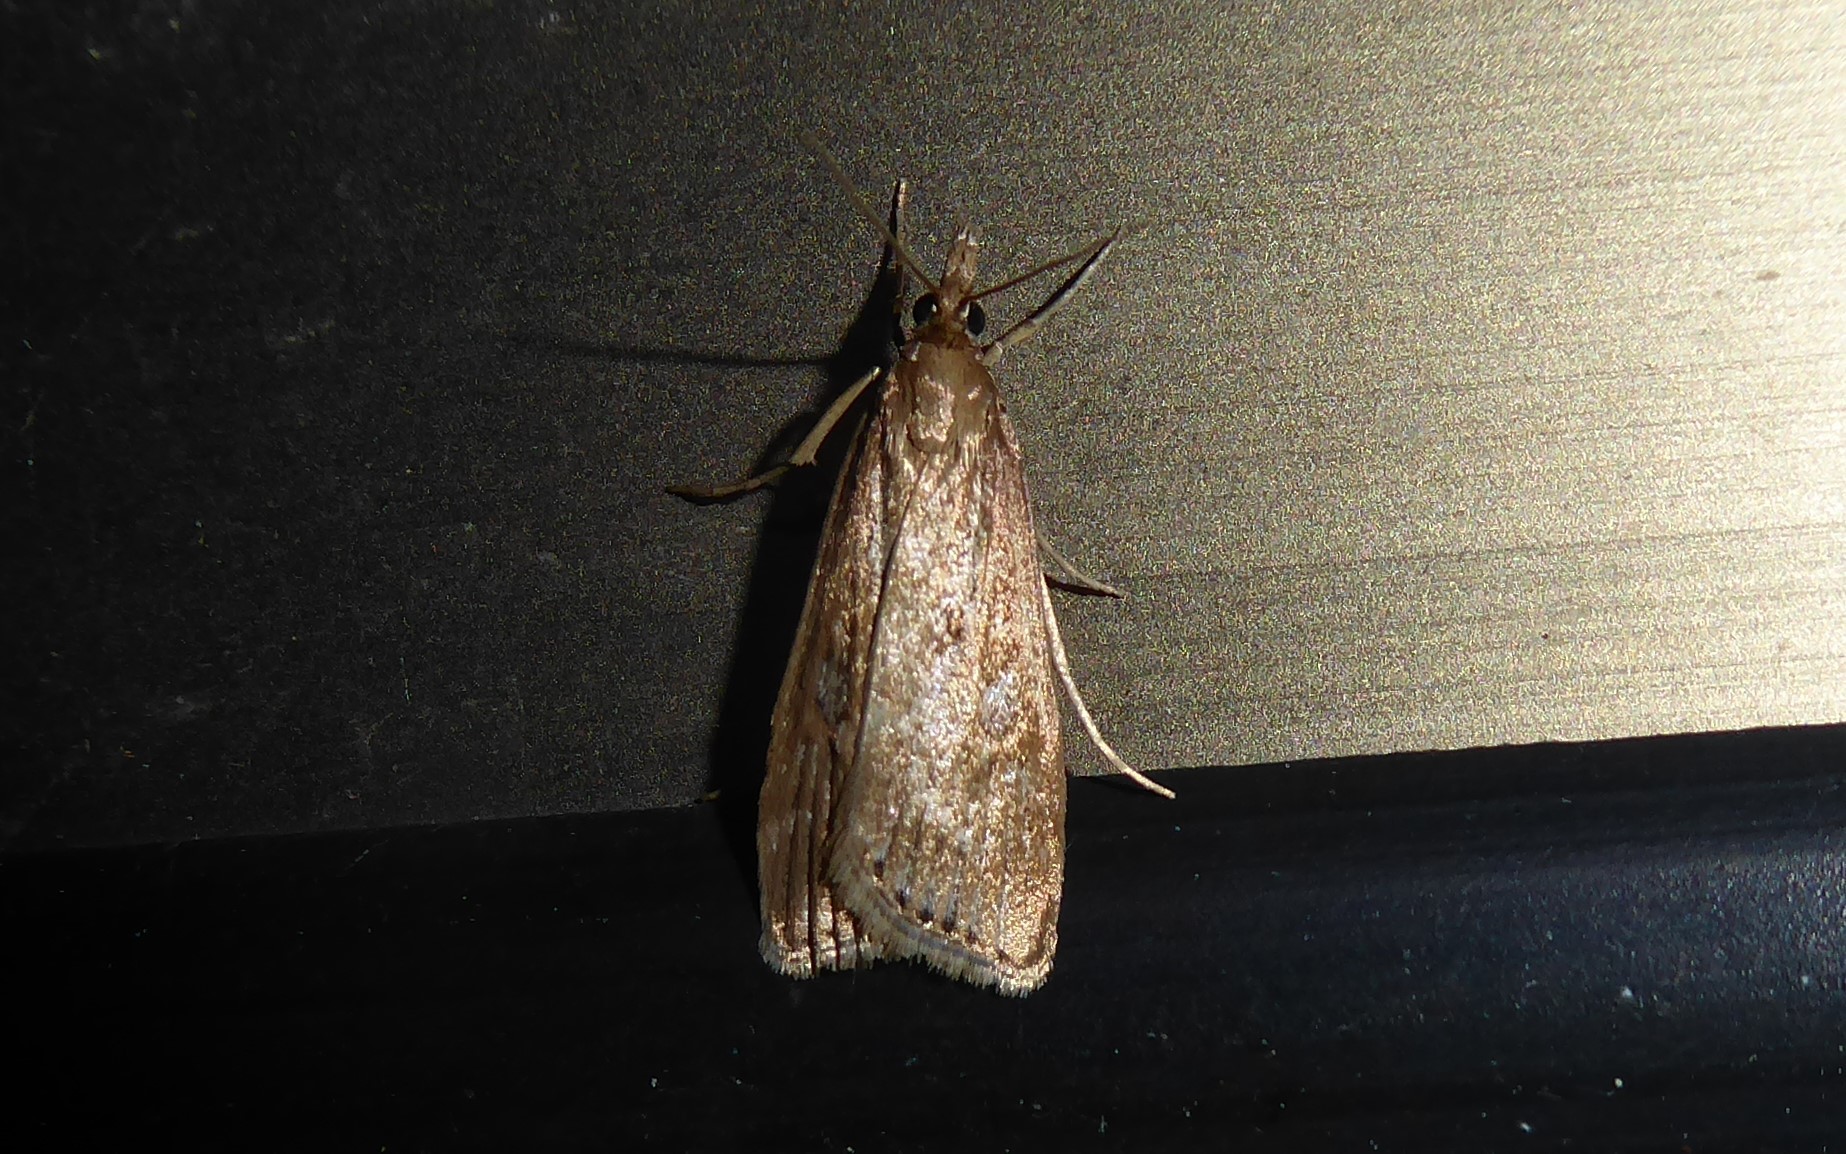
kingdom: Animalia
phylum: Arthropoda
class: Insecta
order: Lepidoptera
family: Crambidae
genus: Eudonia
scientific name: Eudonia octophora
